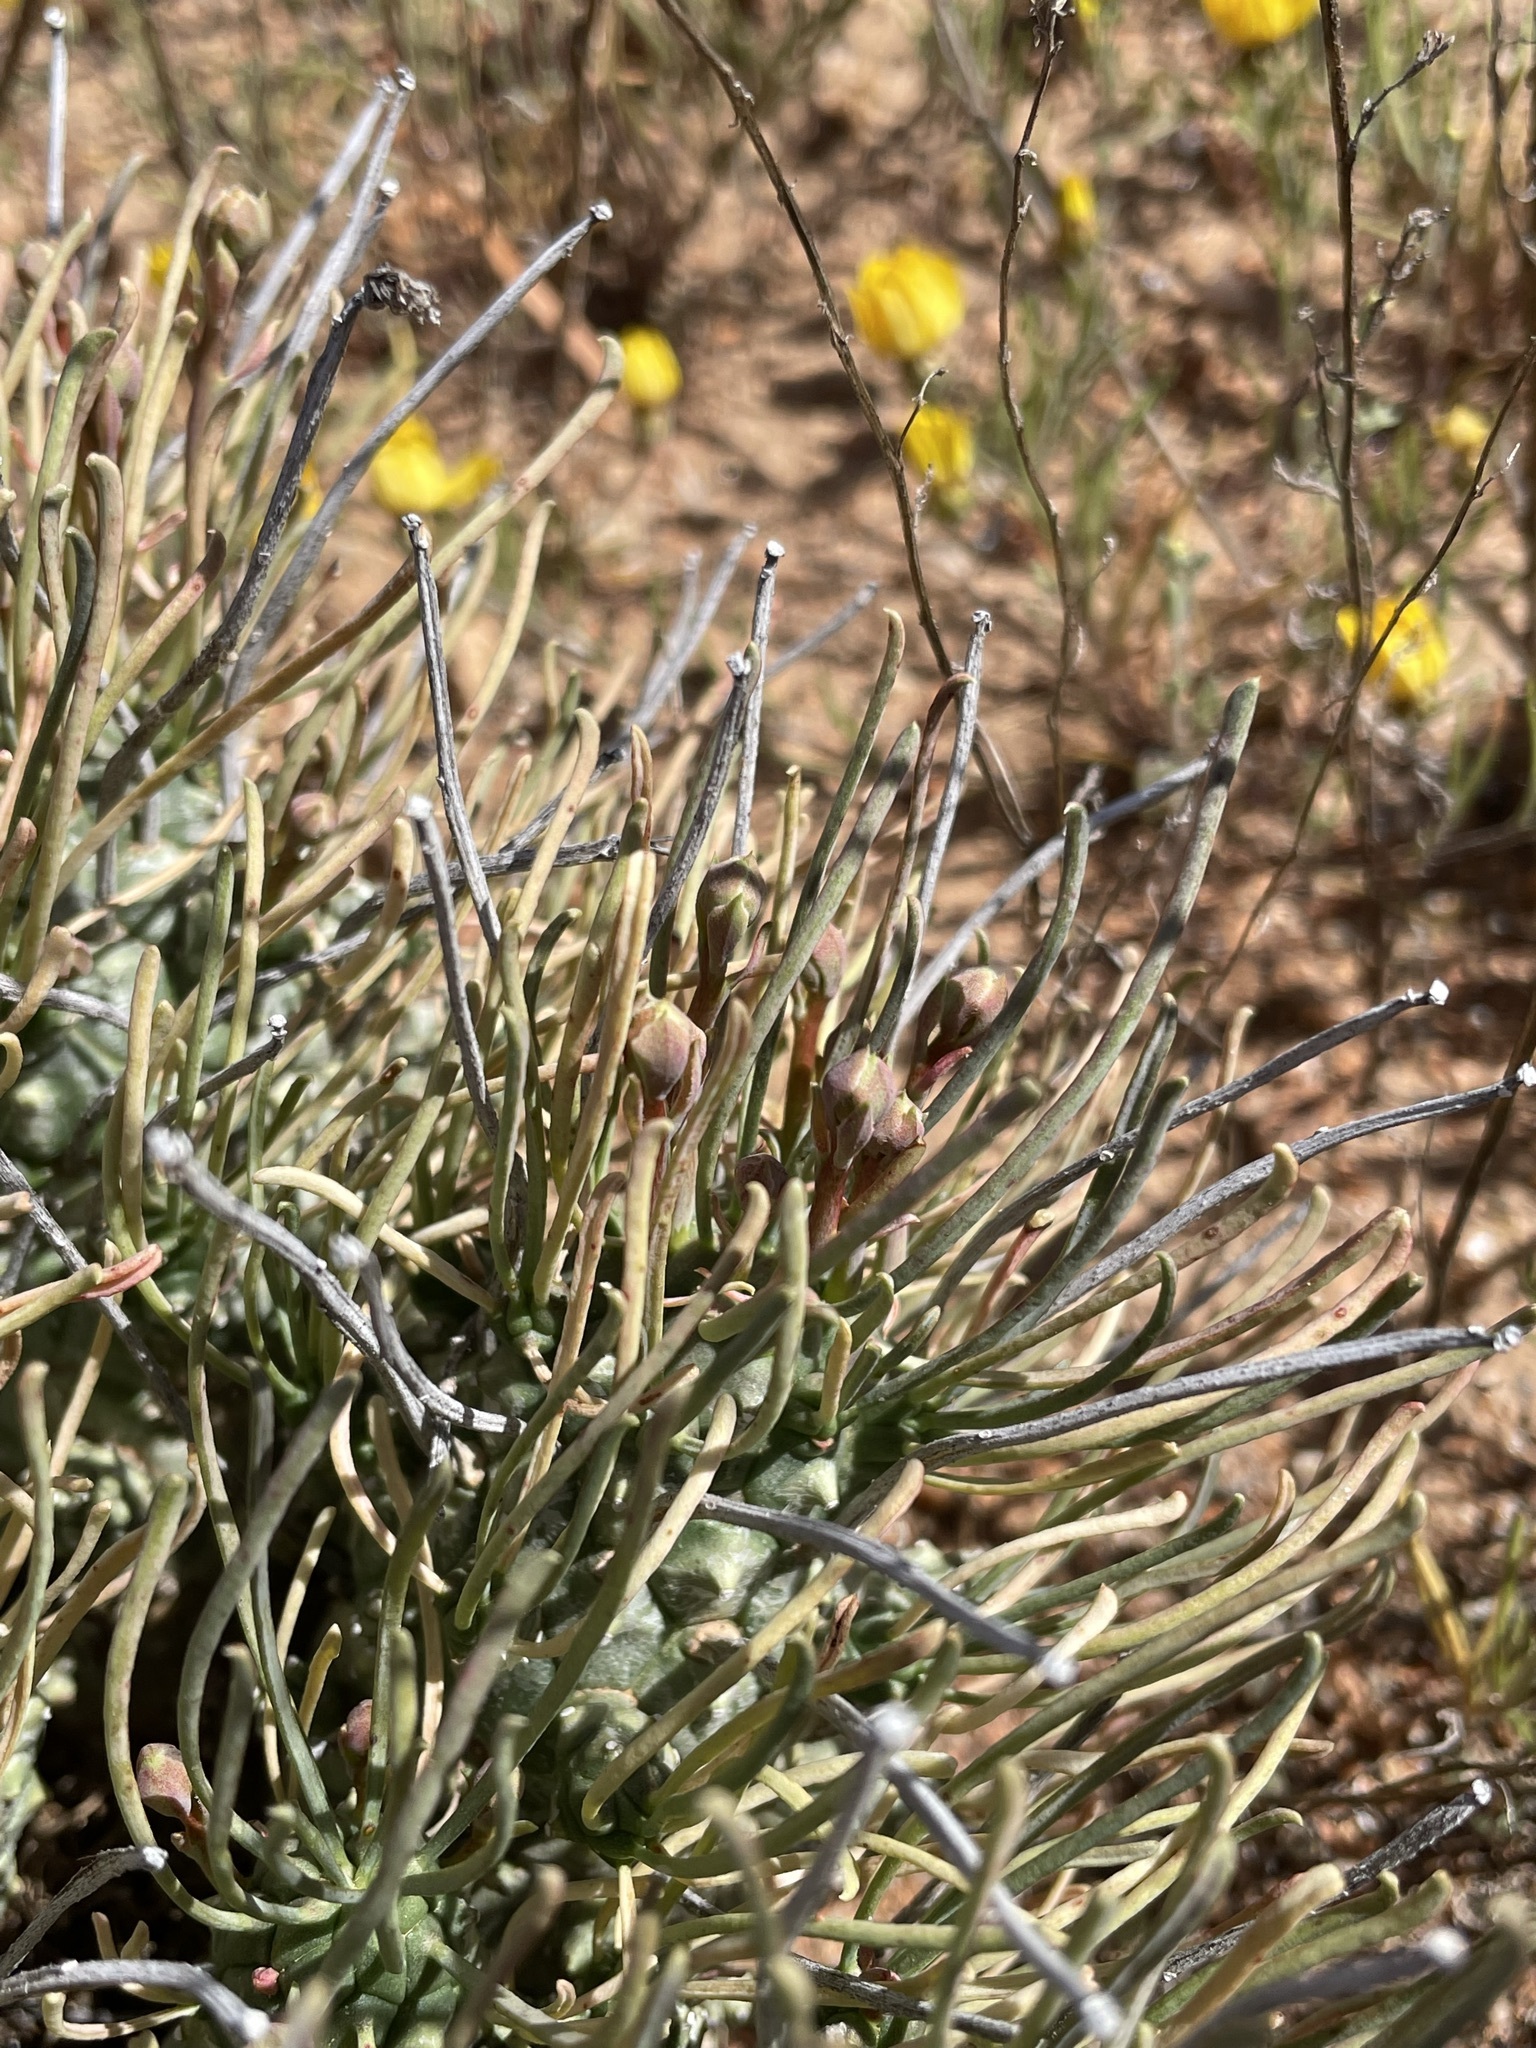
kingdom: Plantae
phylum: Tracheophyta
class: Magnoliopsida
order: Malpighiales
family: Euphorbiaceae
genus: Euphorbia
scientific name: Euphorbia filiflora
